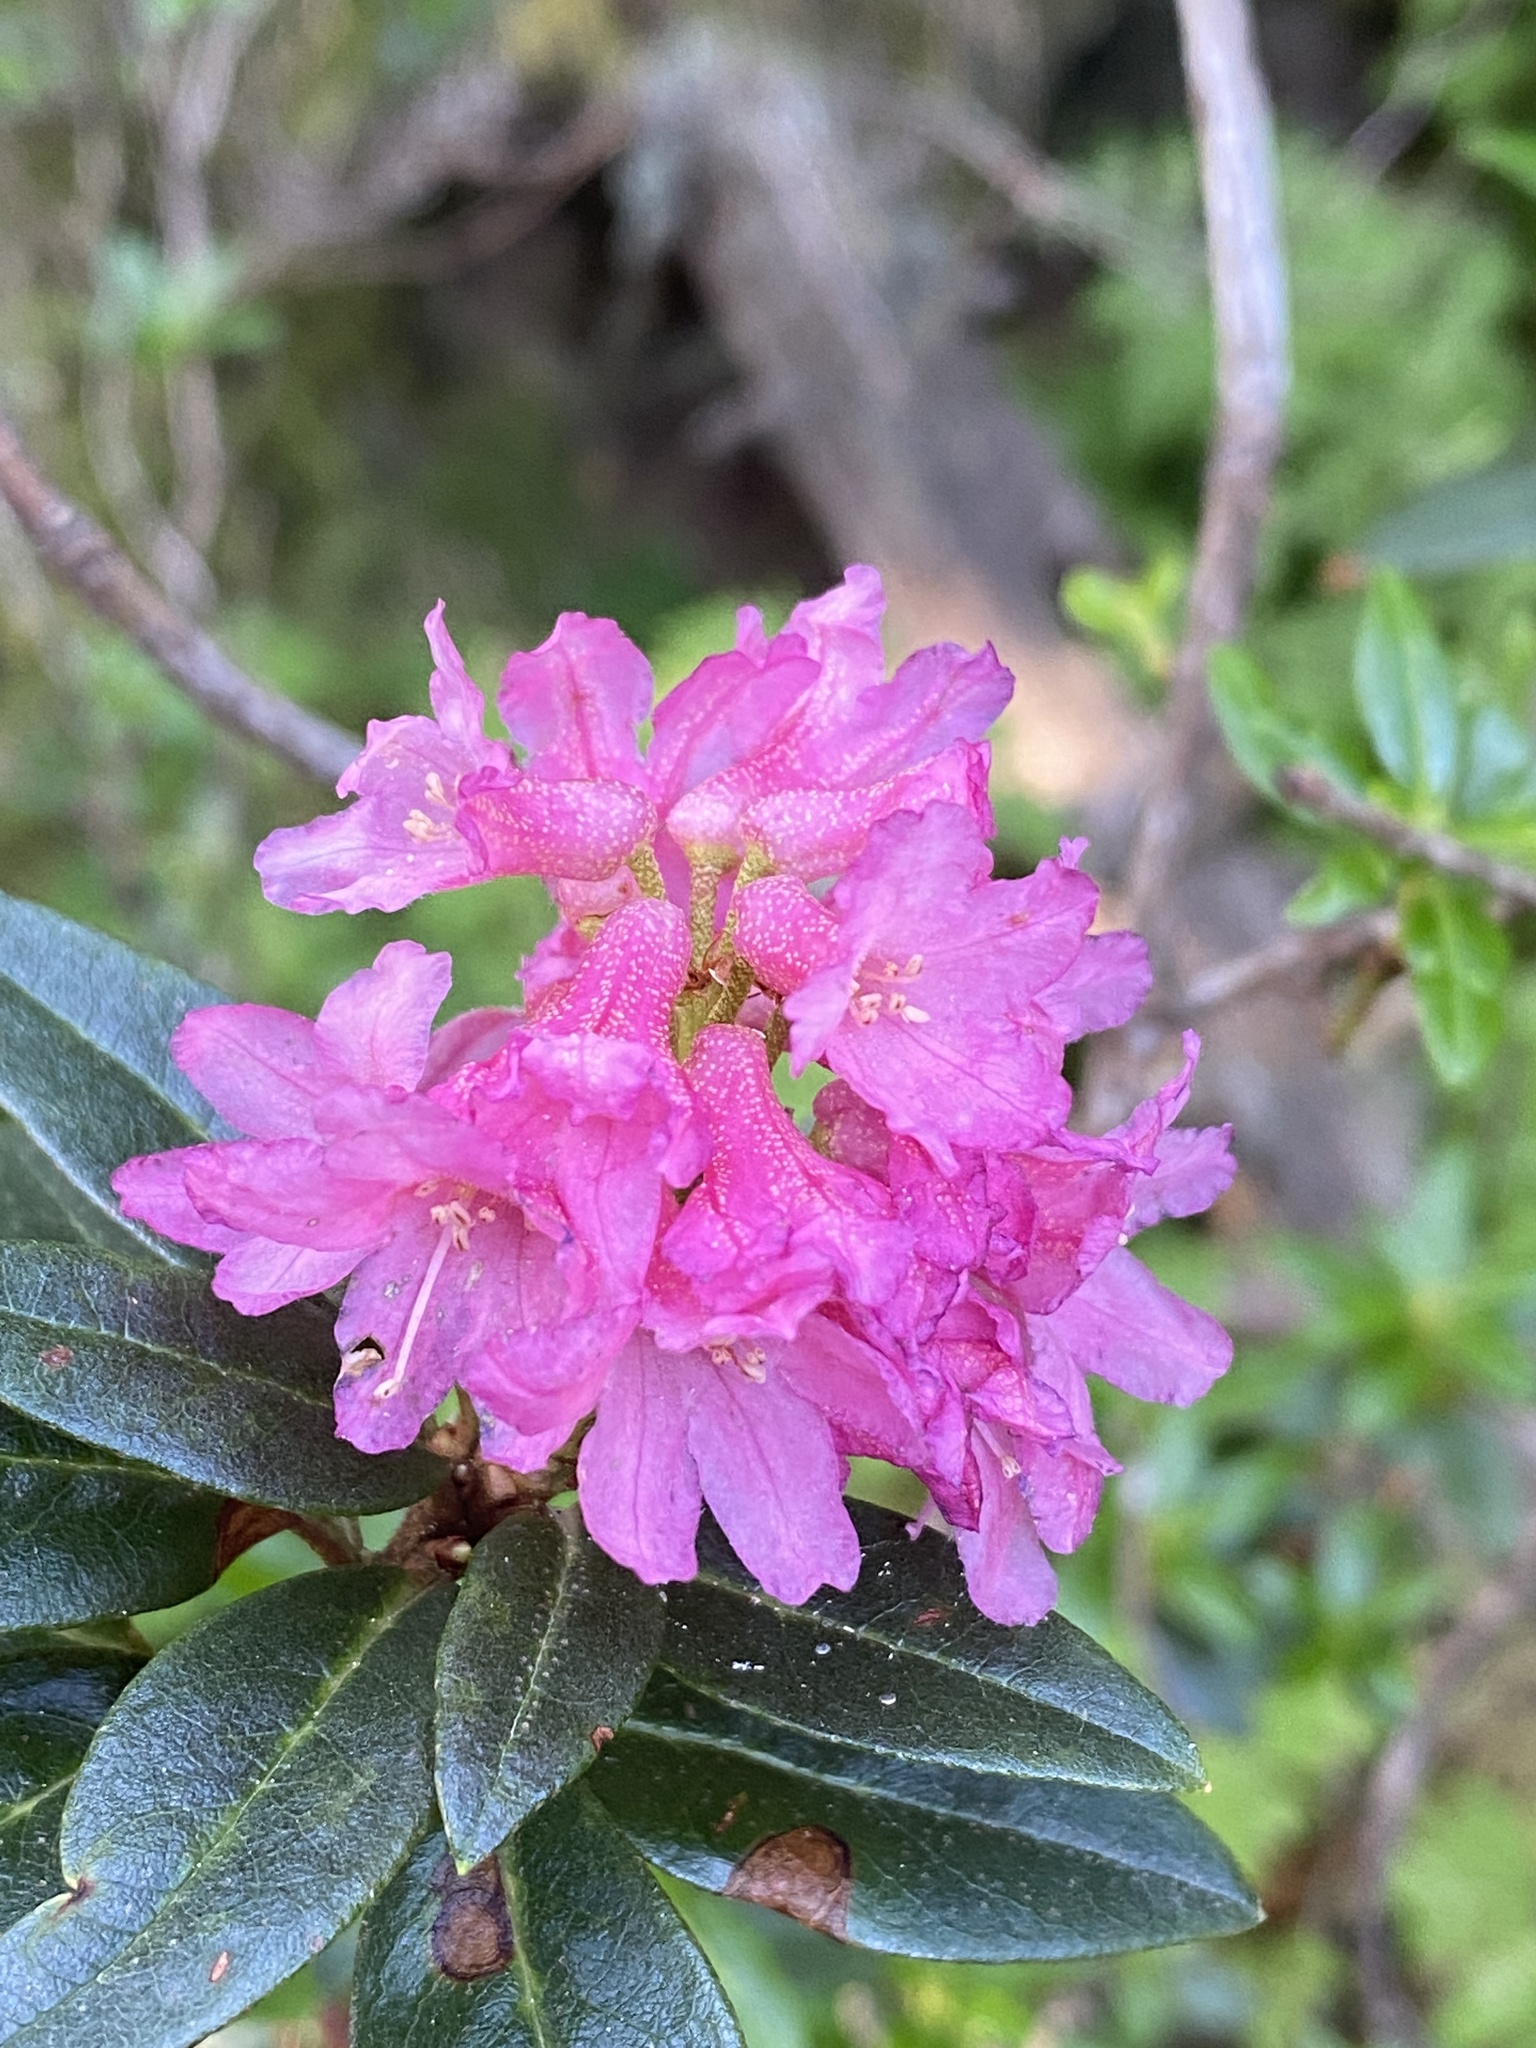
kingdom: Plantae
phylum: Tracheophyta
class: Magnoliopsida
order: Ericales
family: Ericaceae
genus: Rhododendron
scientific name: Rhododendron ferrugineum
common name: Alpenrose
